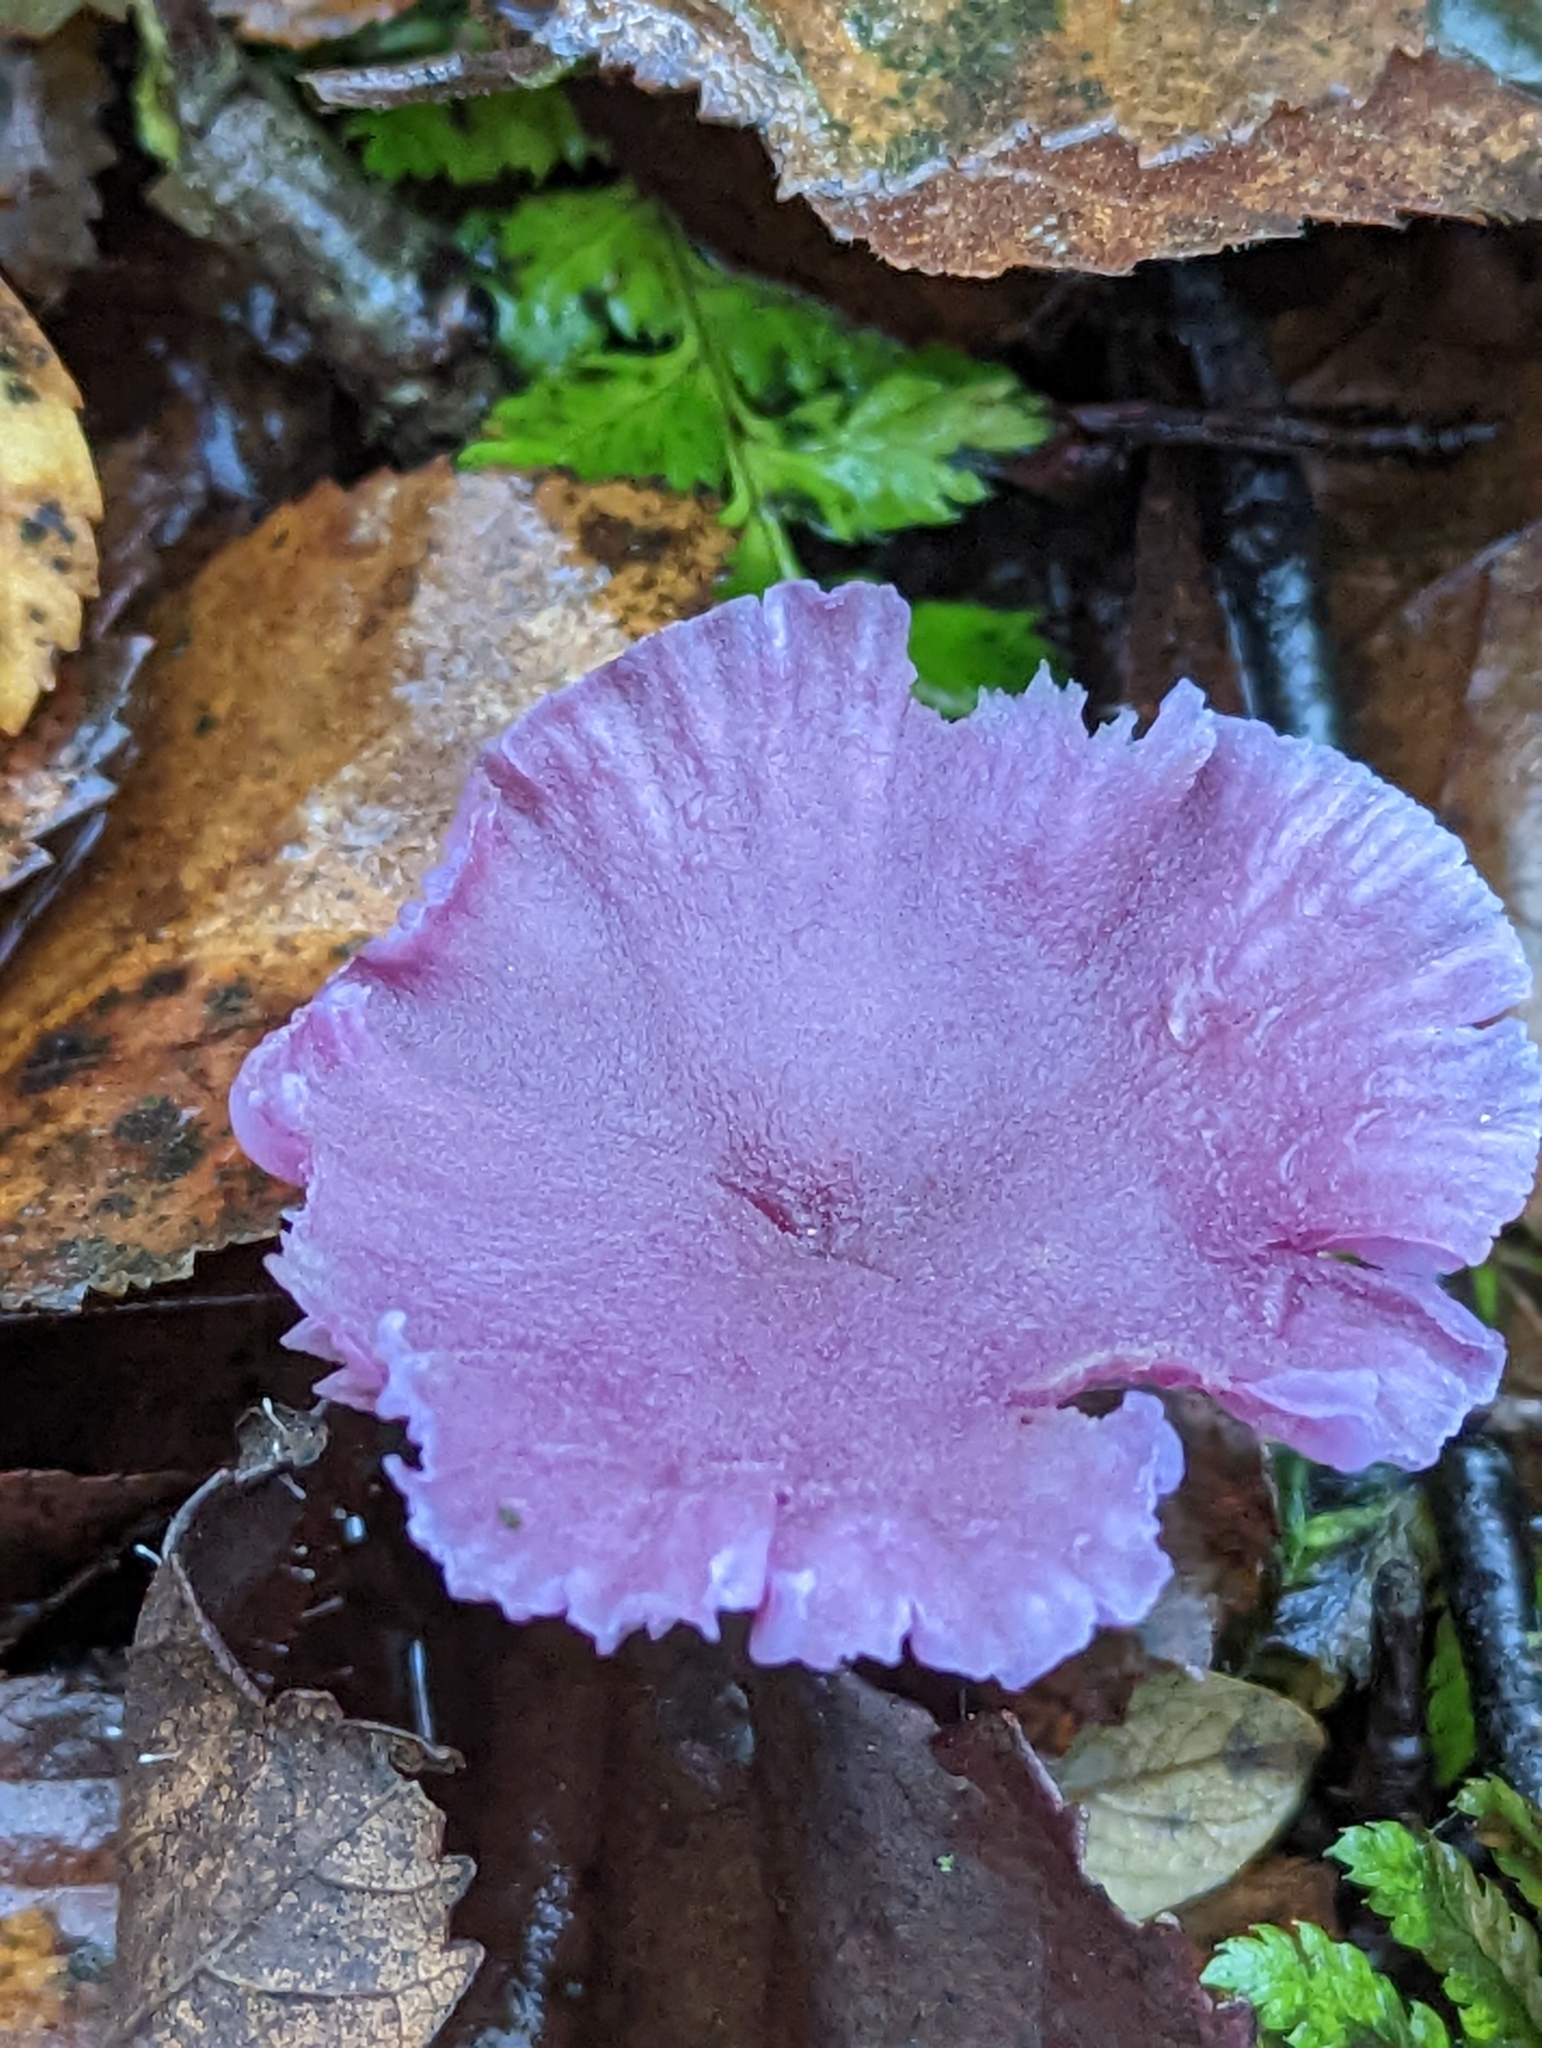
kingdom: Fungi
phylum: Basidiomycota
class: Agaricomycetes
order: Agaricales
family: Hydnangiaceae
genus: Laccaria
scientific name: Laccaria amethystina
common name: Amethyst deceiver
